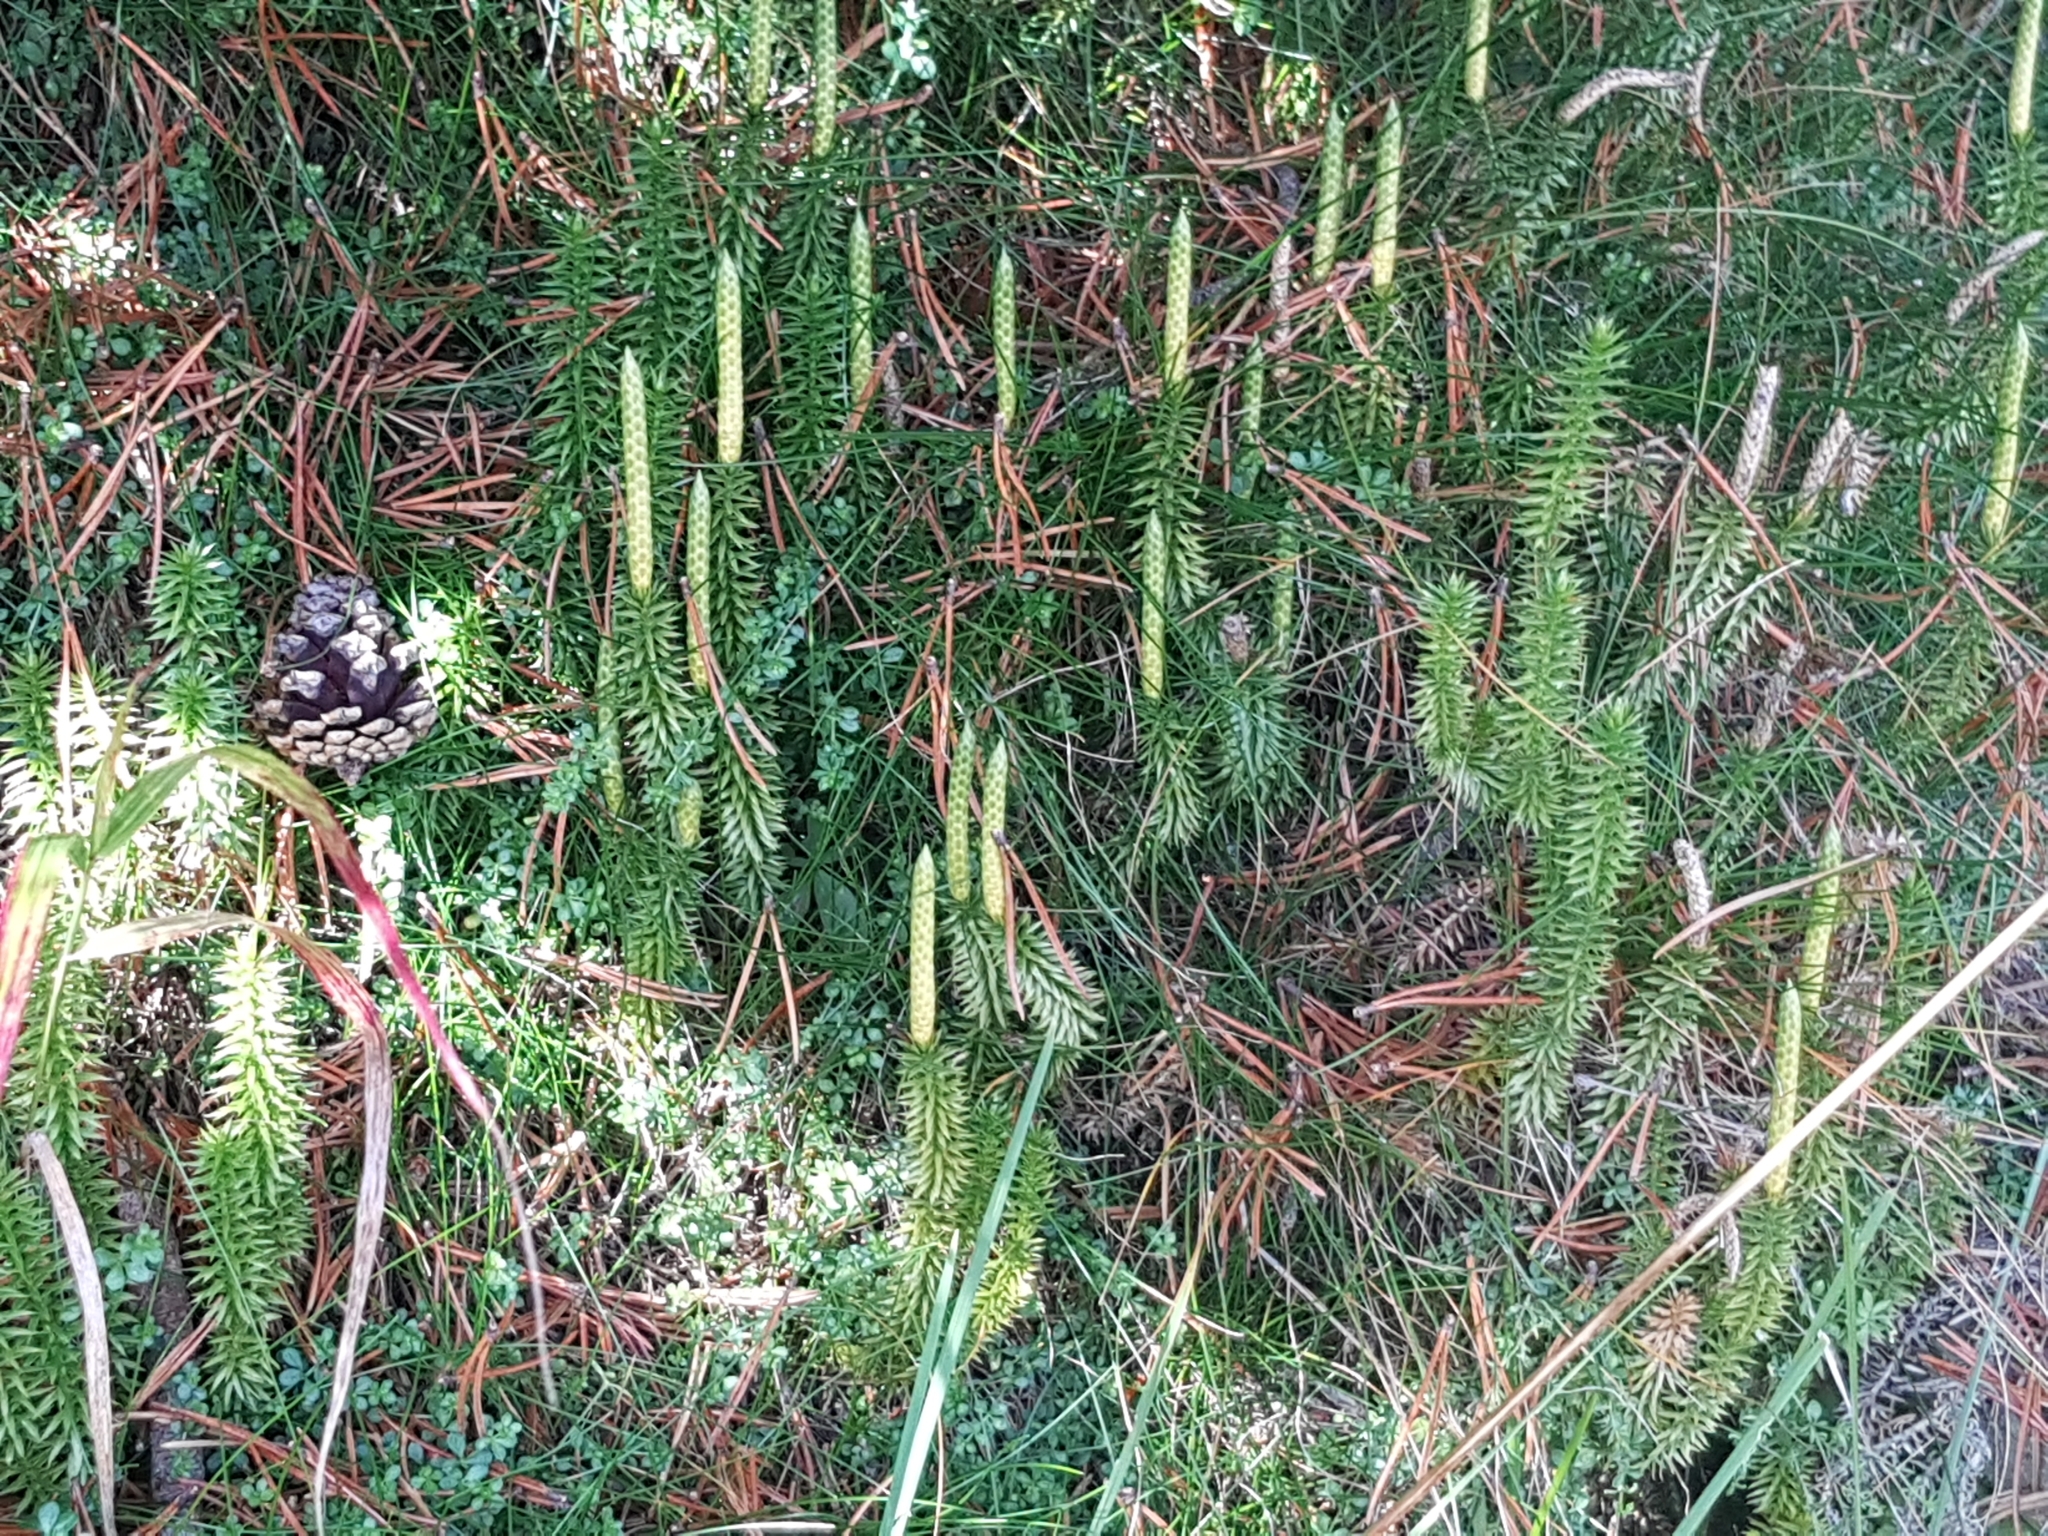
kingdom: Plantae
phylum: Tracheophyta
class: Lycopodiopsida
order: Lycopodiales
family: Lycopodiaceae
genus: Spinulum
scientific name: Spinulum annotinum
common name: Interrupted club-moss
